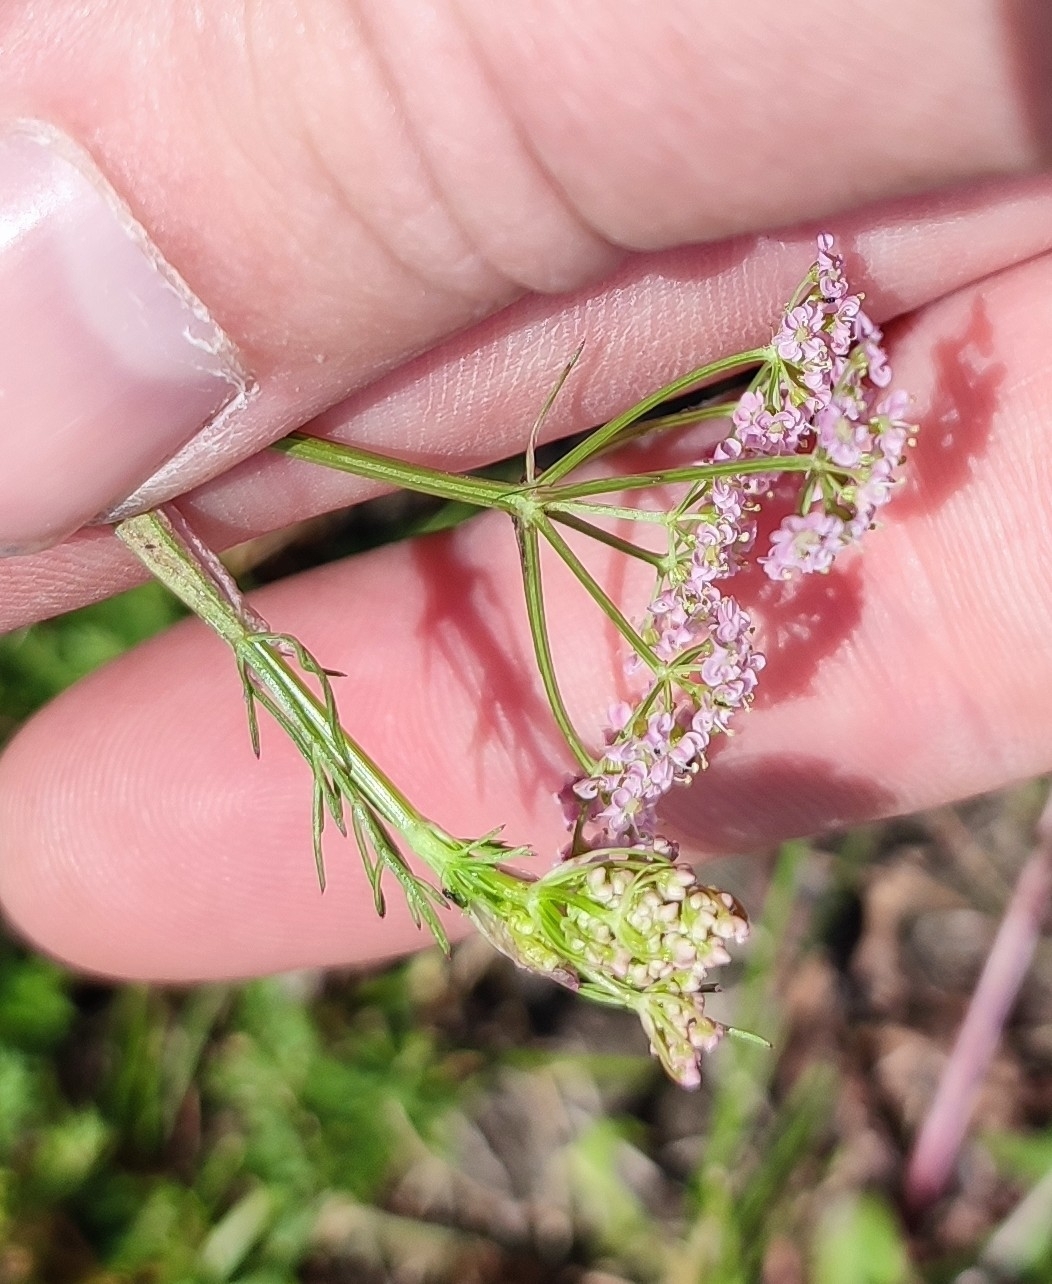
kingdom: Plantae
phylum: Tracheophyta
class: Magnoliopsida
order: Apiales
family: Apiaceae
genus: Carum
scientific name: Carum carvi
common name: Caraway
